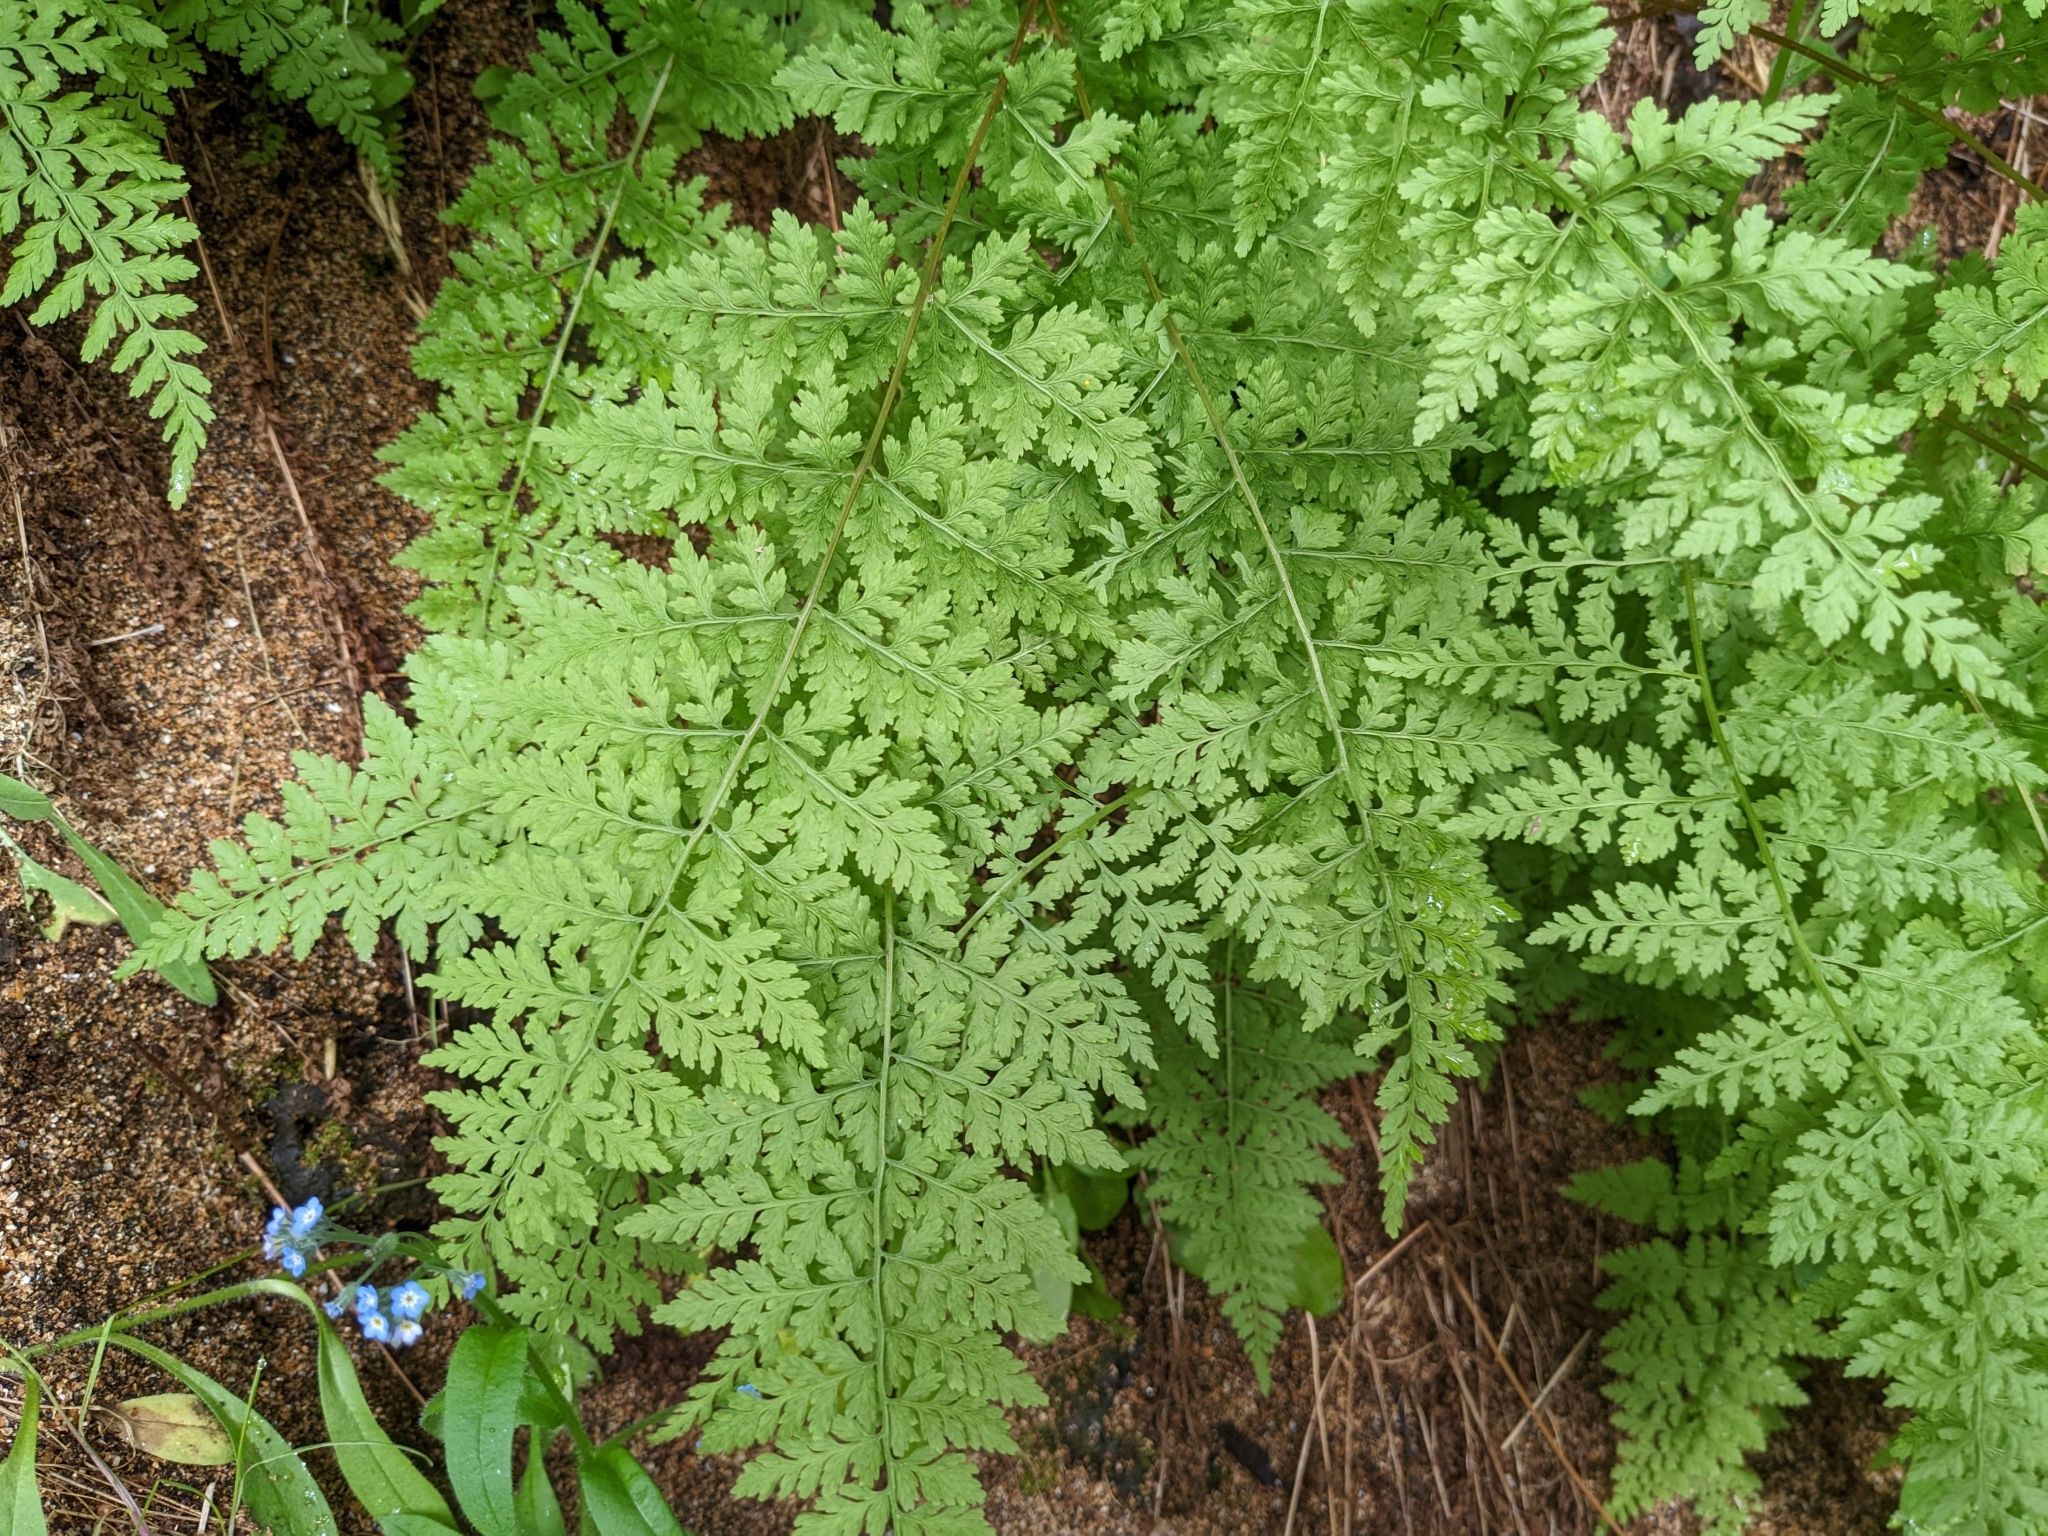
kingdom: Plantae
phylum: Tracheophyta
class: Polypodiopsida
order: Polypodiales
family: Cystopteridaceae
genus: Cystopteris
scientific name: Cystopteris fragilis
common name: Brittle bladder fern
